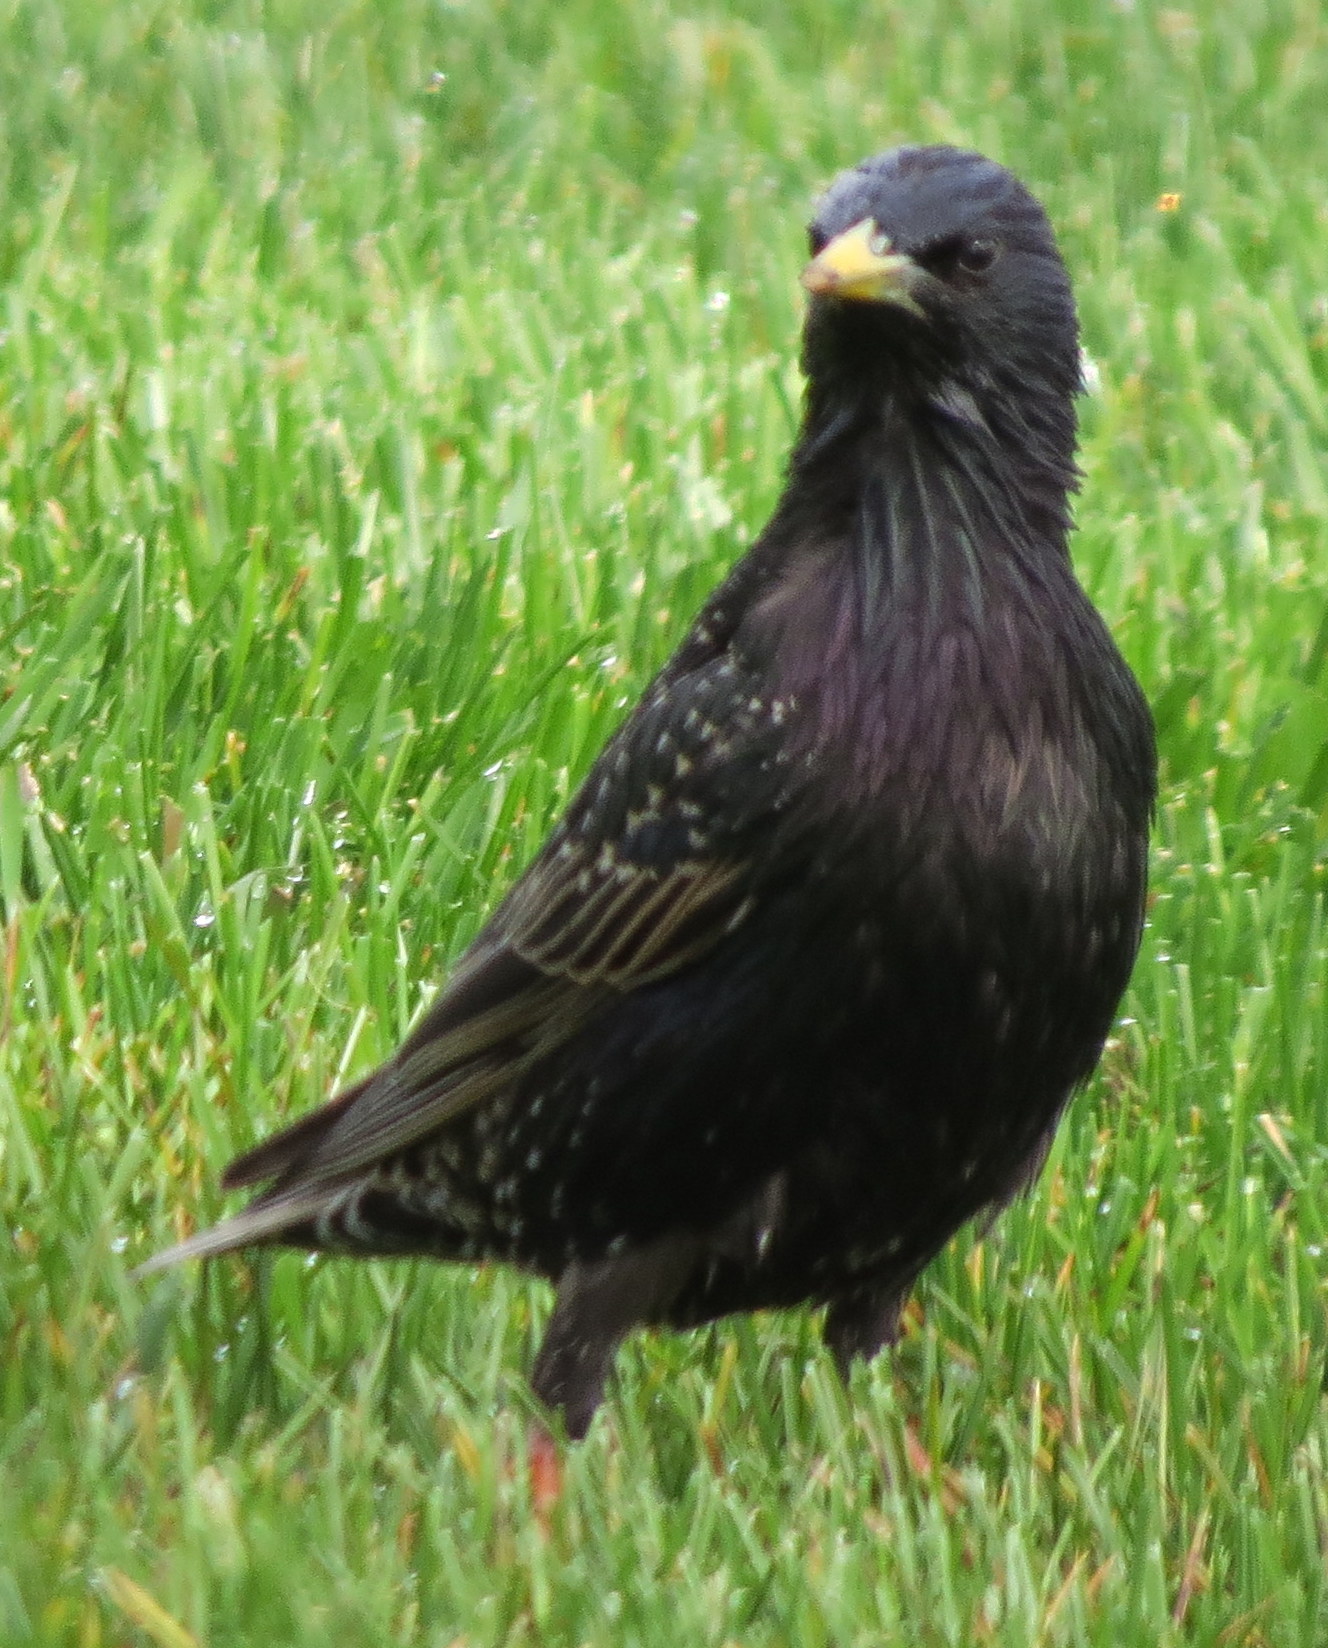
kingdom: Animalia
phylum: Chordata
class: Aves
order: Passeriformes
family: Sturnidae
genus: Sturnus
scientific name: Sturnus vulgaris
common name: Common starling
